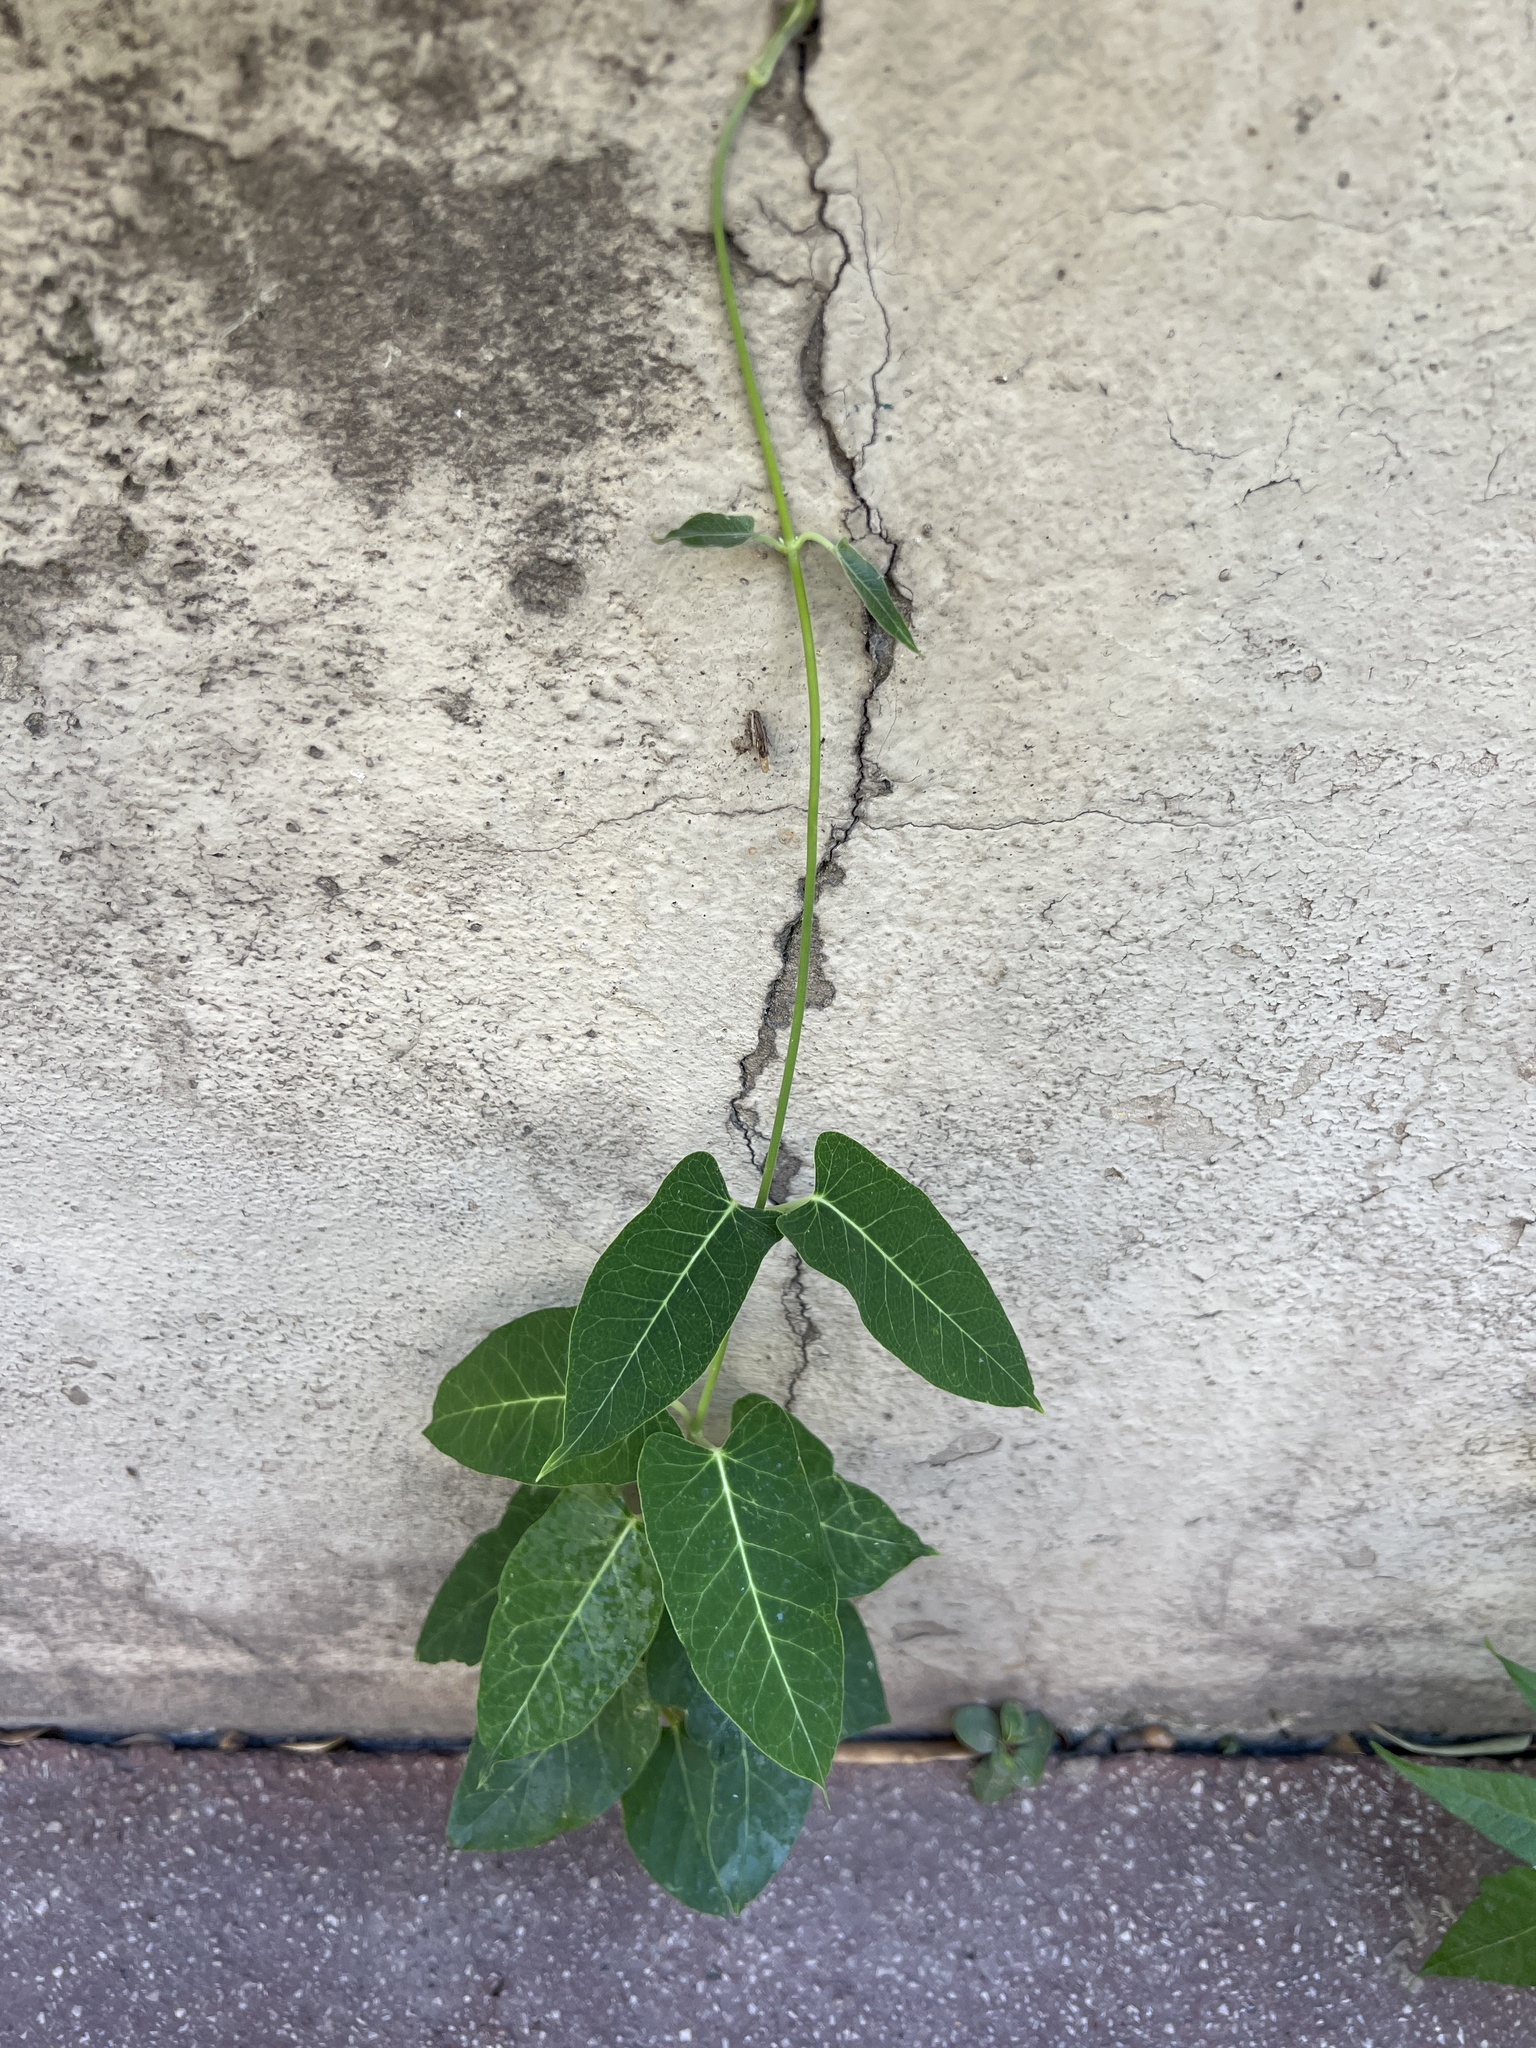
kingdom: Plantae
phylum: Tracheophyta
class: Magnoliopsida
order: Gentianales
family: Apocynaceae
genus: Araujia
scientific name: Araujia sericifera
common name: White bladderflower
